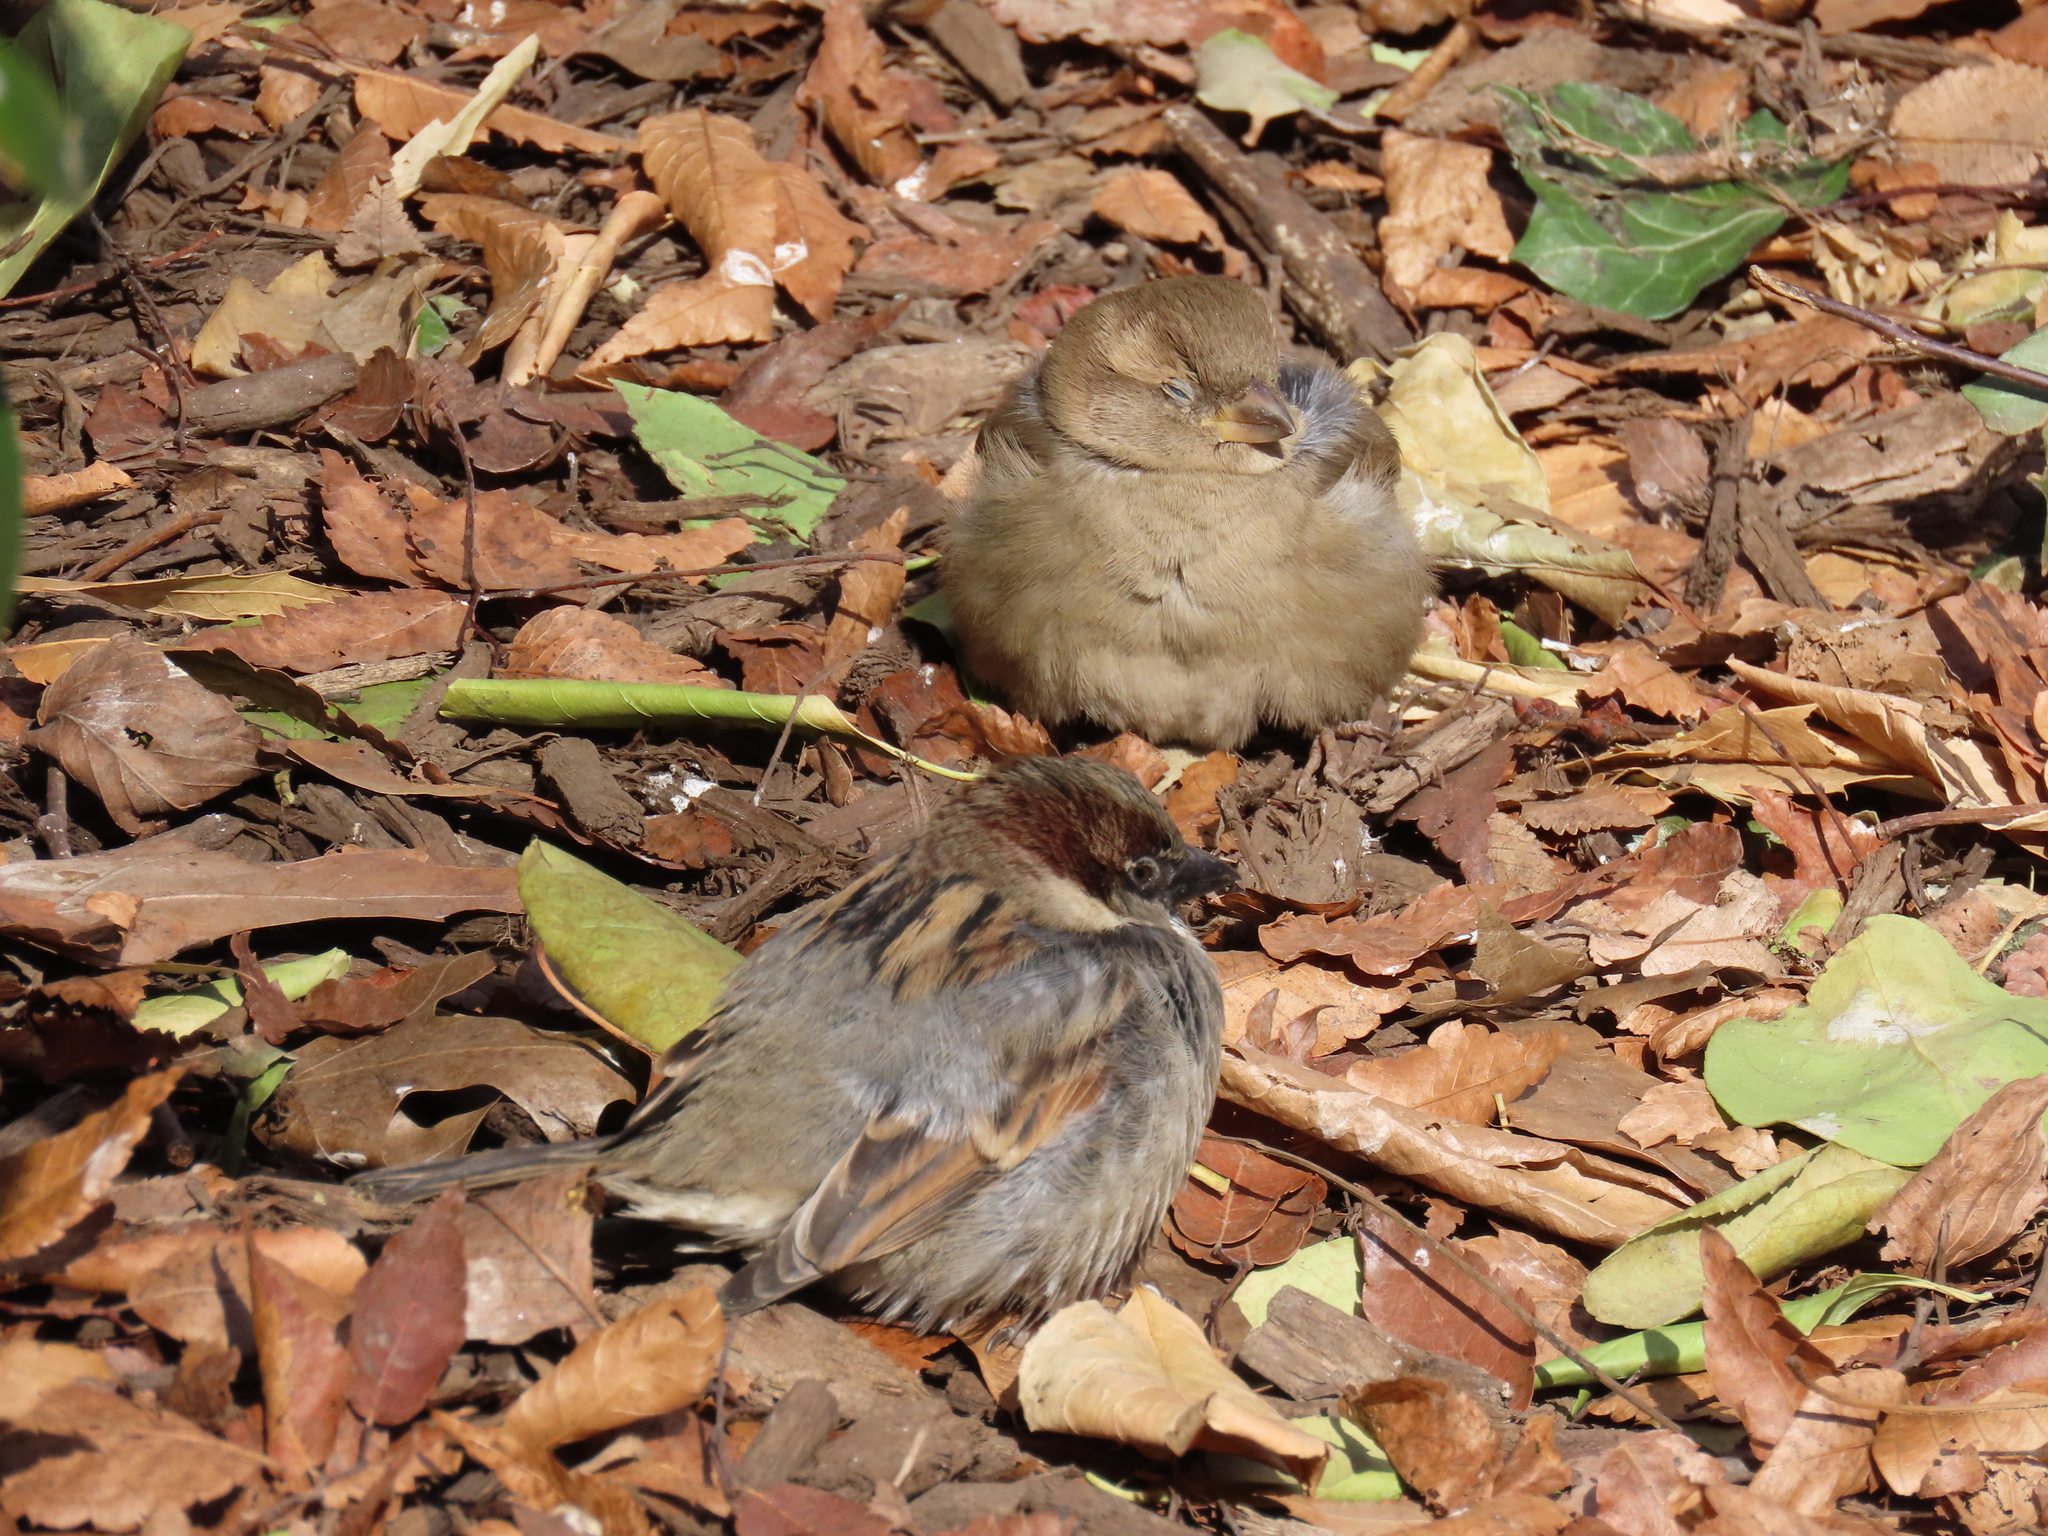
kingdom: Animalia
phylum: Chordata
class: Aves
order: Passeriformes
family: Passeridae
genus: Passer
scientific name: Passer domesticus
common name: House sparrow
